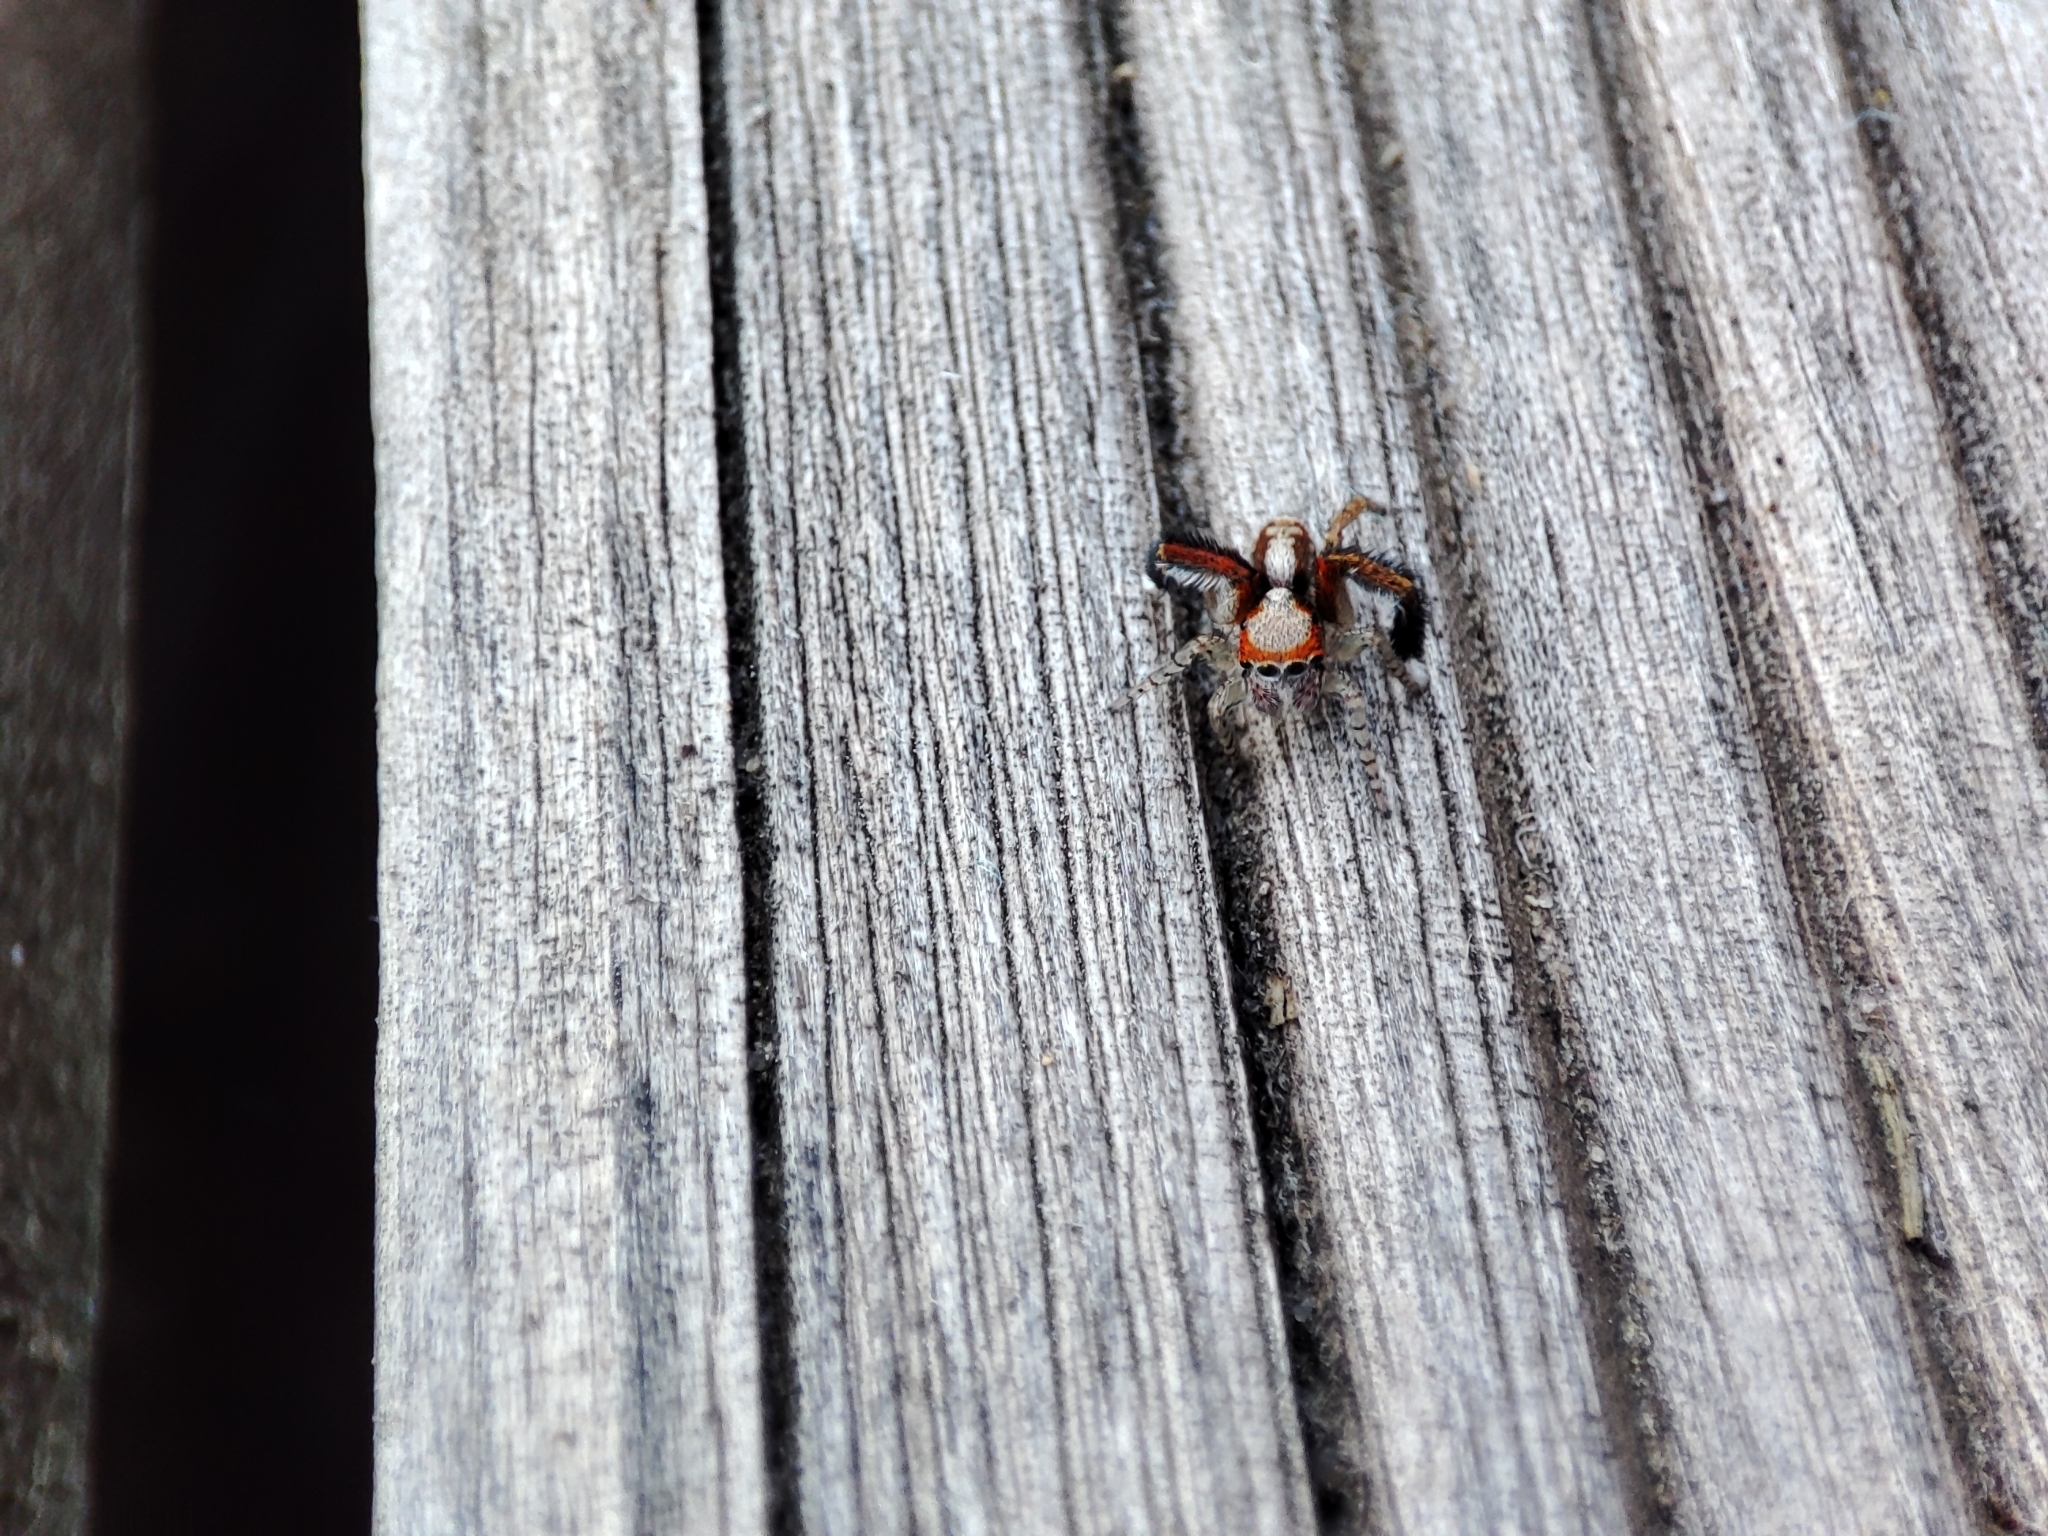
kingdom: Animalia
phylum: Arthropoda
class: Arachnida
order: Araneae
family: Salticidae
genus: Saitis
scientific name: Saitis barbipes
